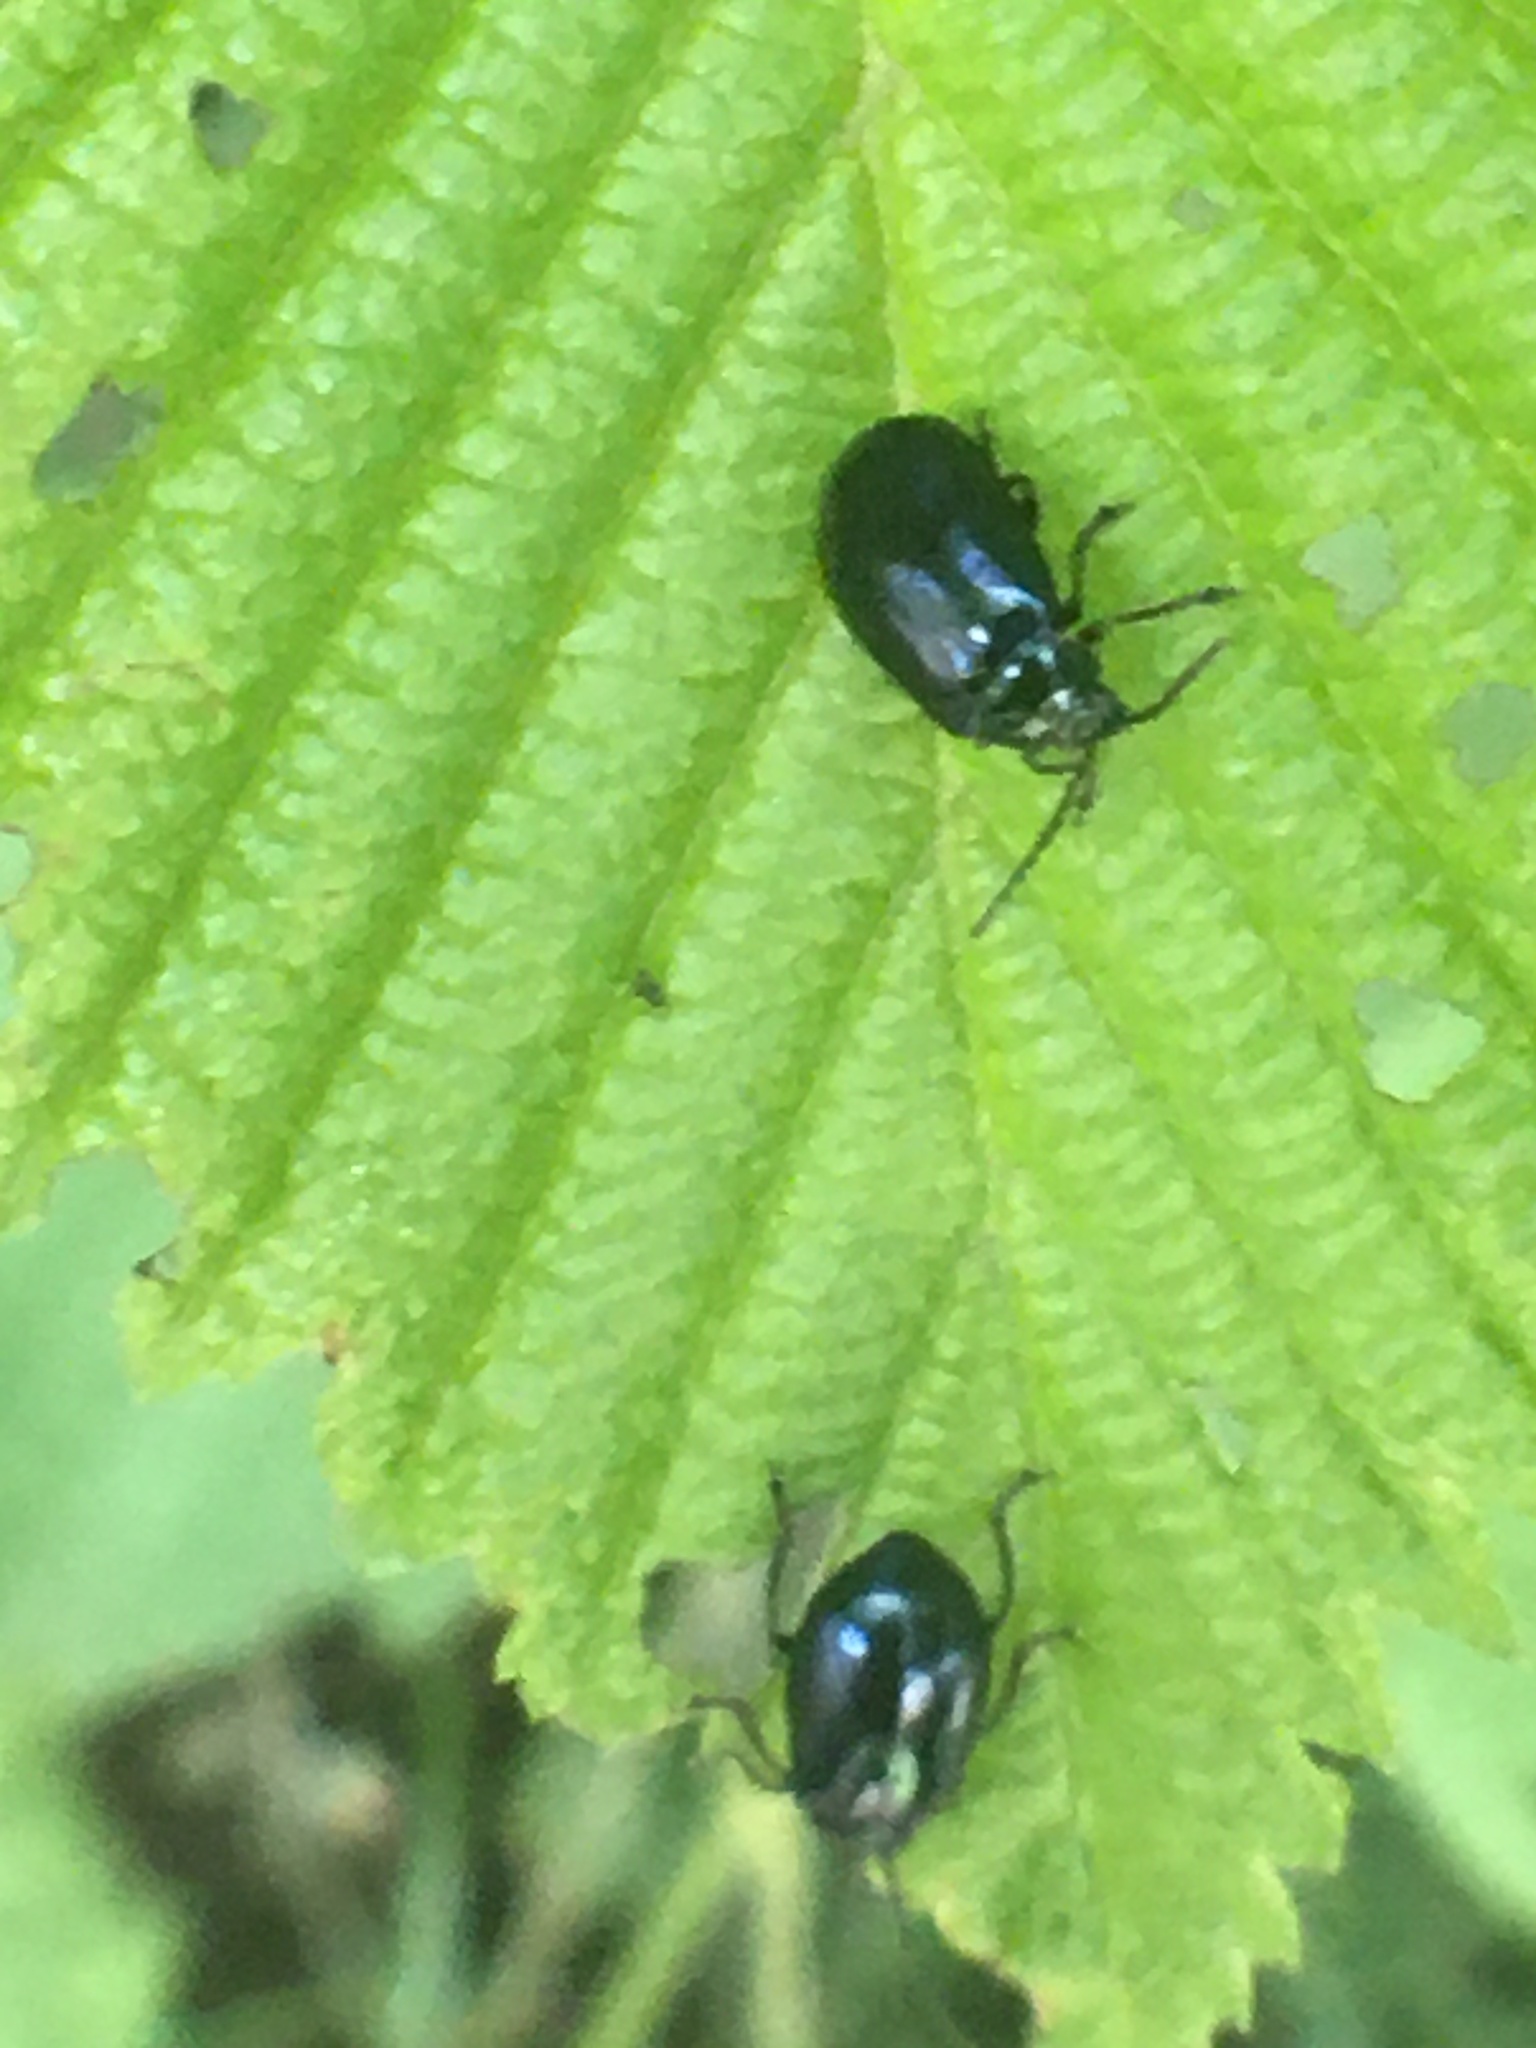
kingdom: Animalia
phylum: Arthropoda
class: Insecta
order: Coleoptera
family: Chrysomelidae
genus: Agelastica
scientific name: Agelastica alni
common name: Alder leaf beetle
